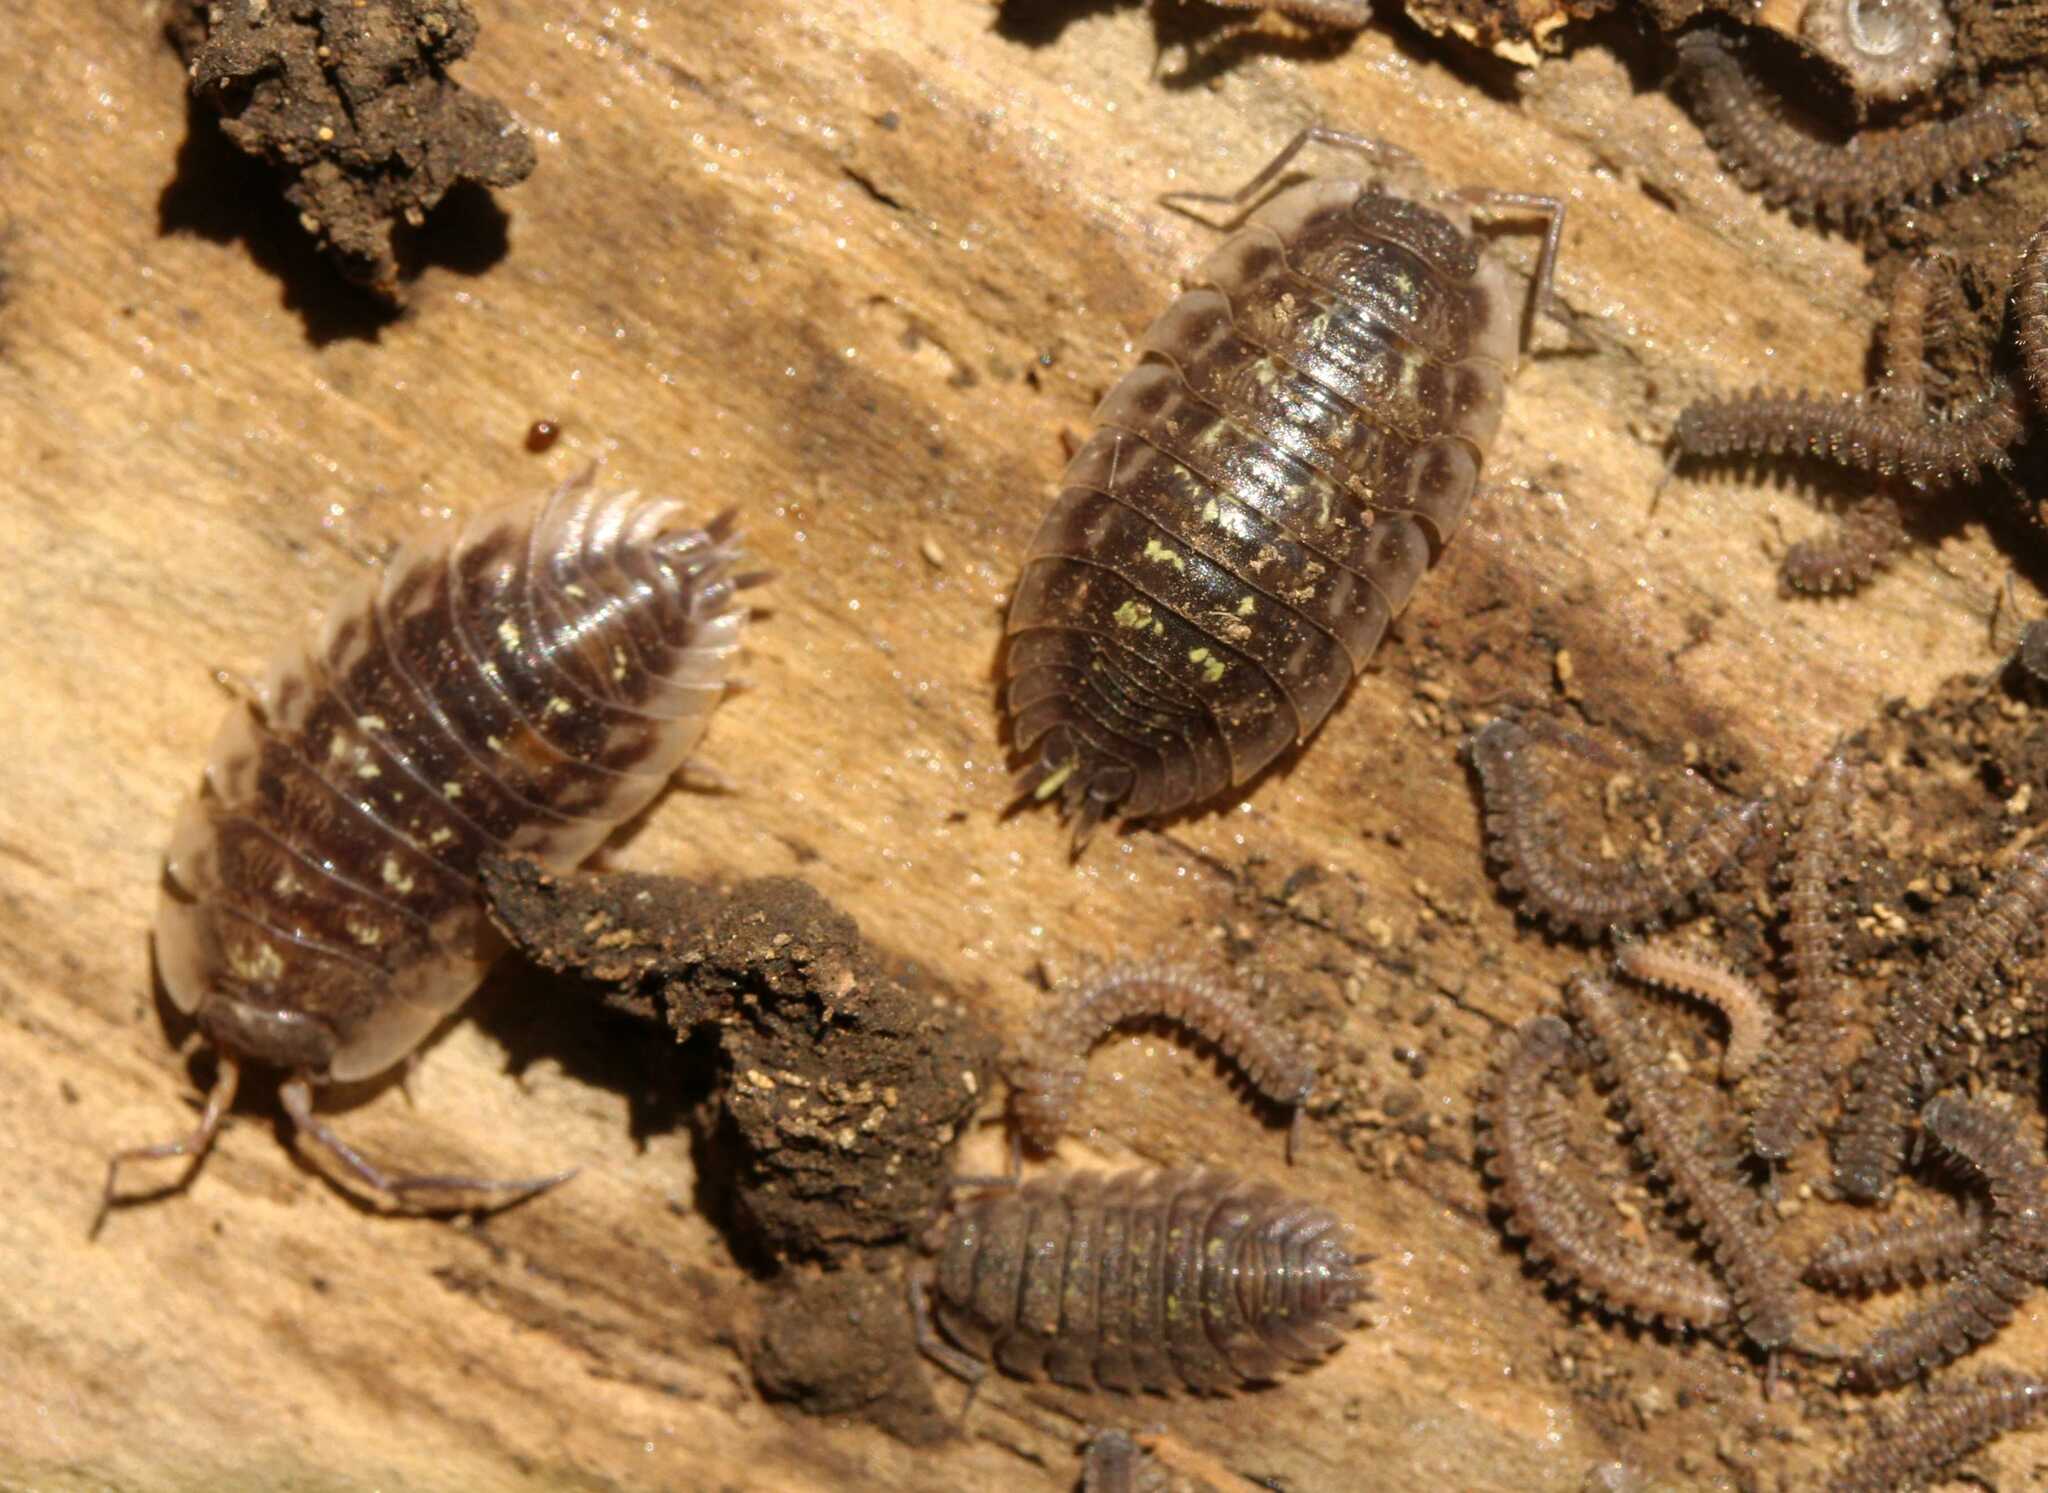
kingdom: Animalia
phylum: Arthropoda
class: Malacostraca
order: Isopoda
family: Oniscidae
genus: Oniscus
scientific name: Oniscus asellus
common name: Common shiny woodlouse
